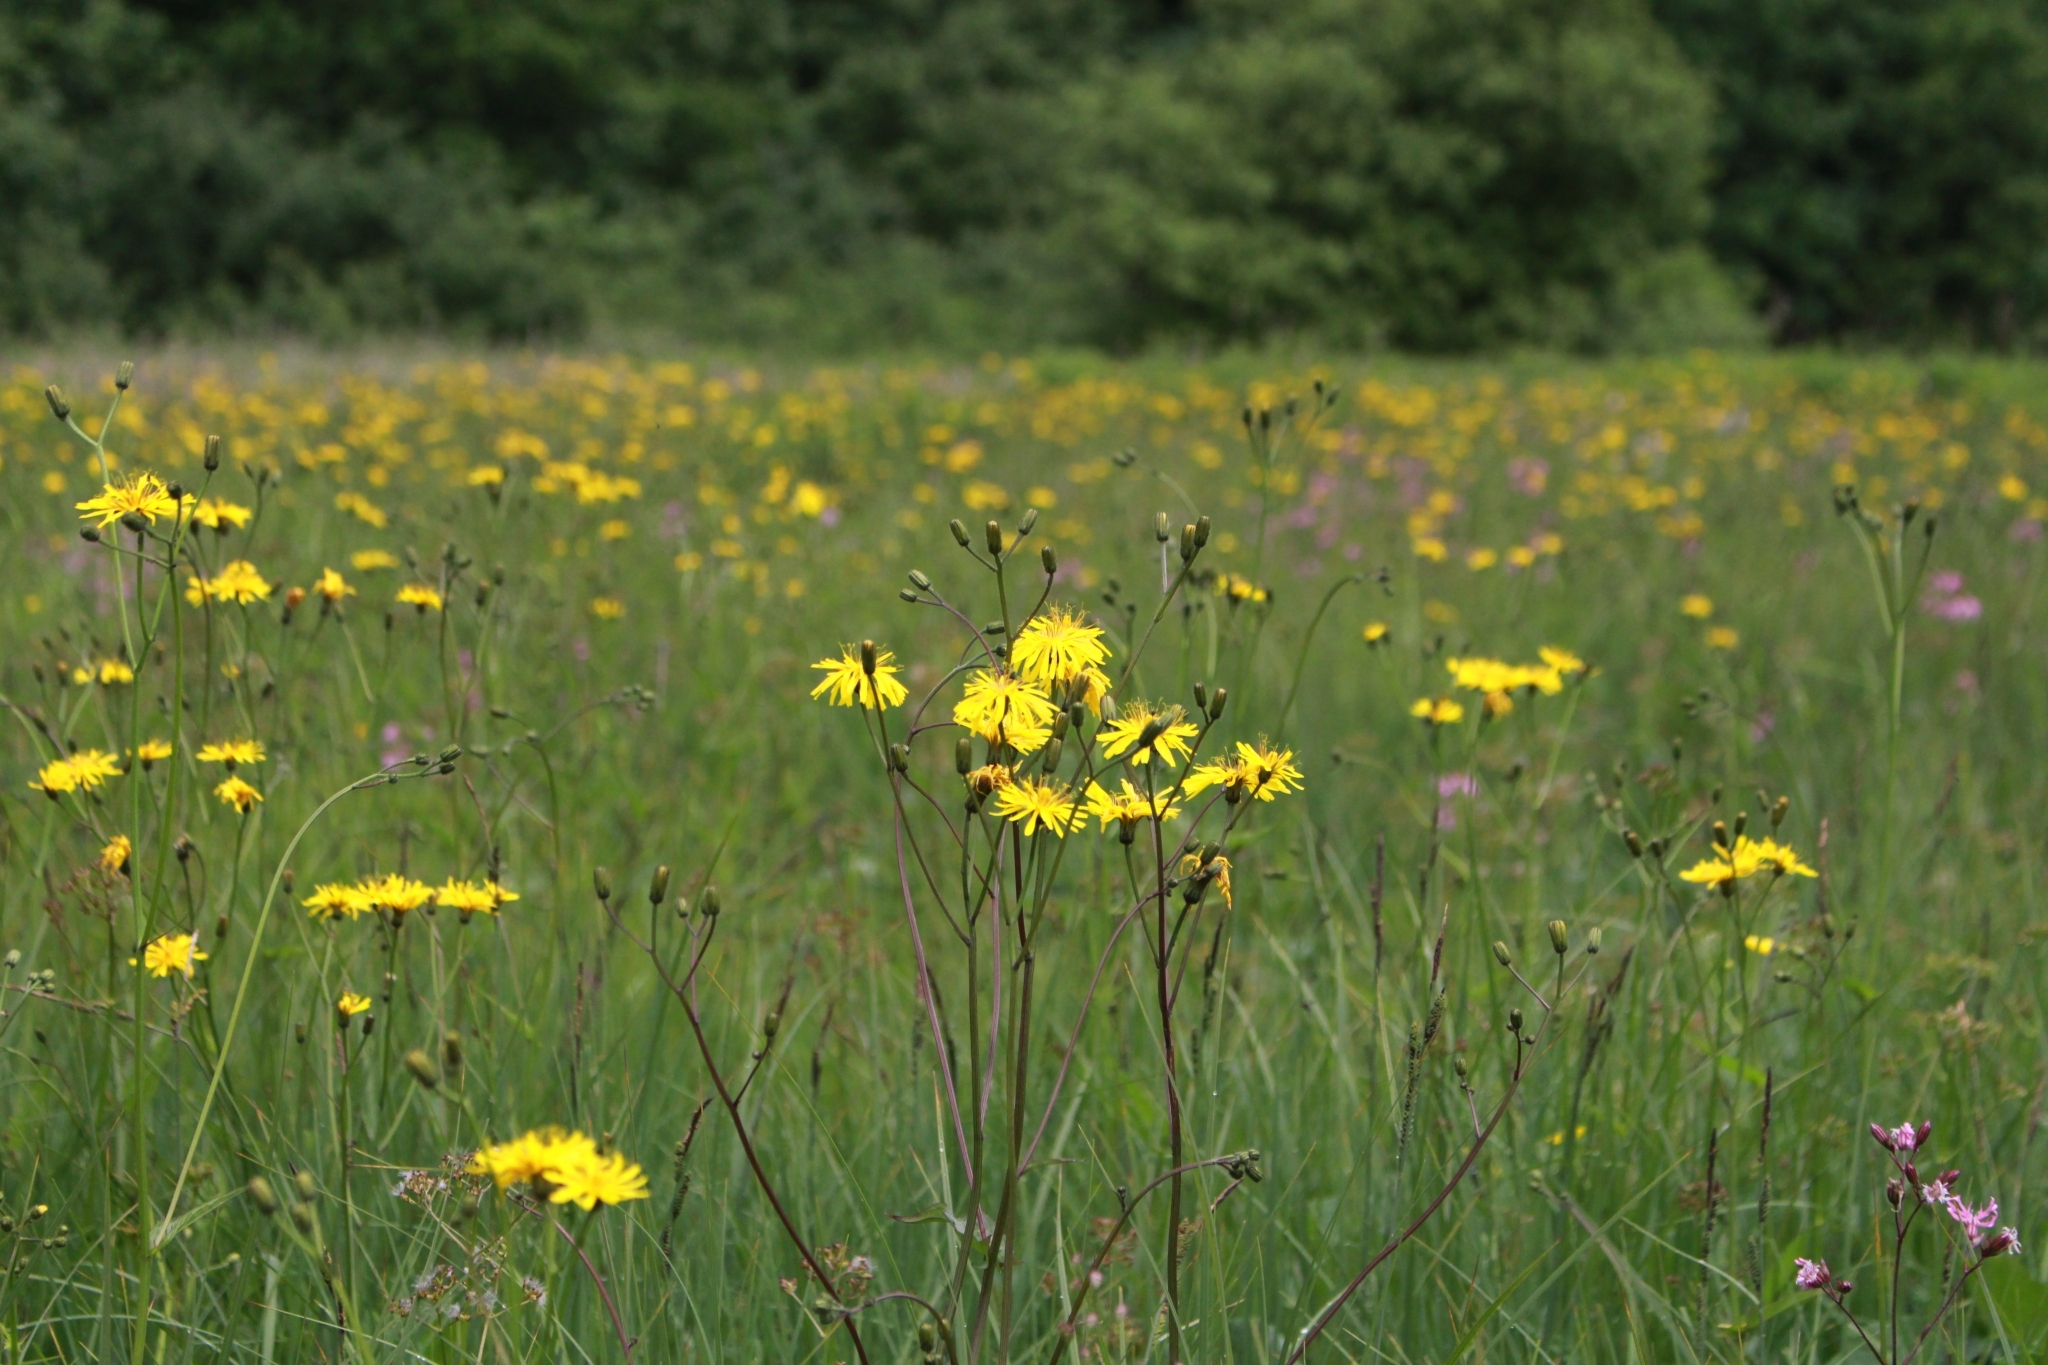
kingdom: Plantae
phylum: Tracheophyta
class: Magnoliopsida
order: Asterales
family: Asteraceae
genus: Crepis
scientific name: Crepis paludosa
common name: Marsh hawk's-beard
